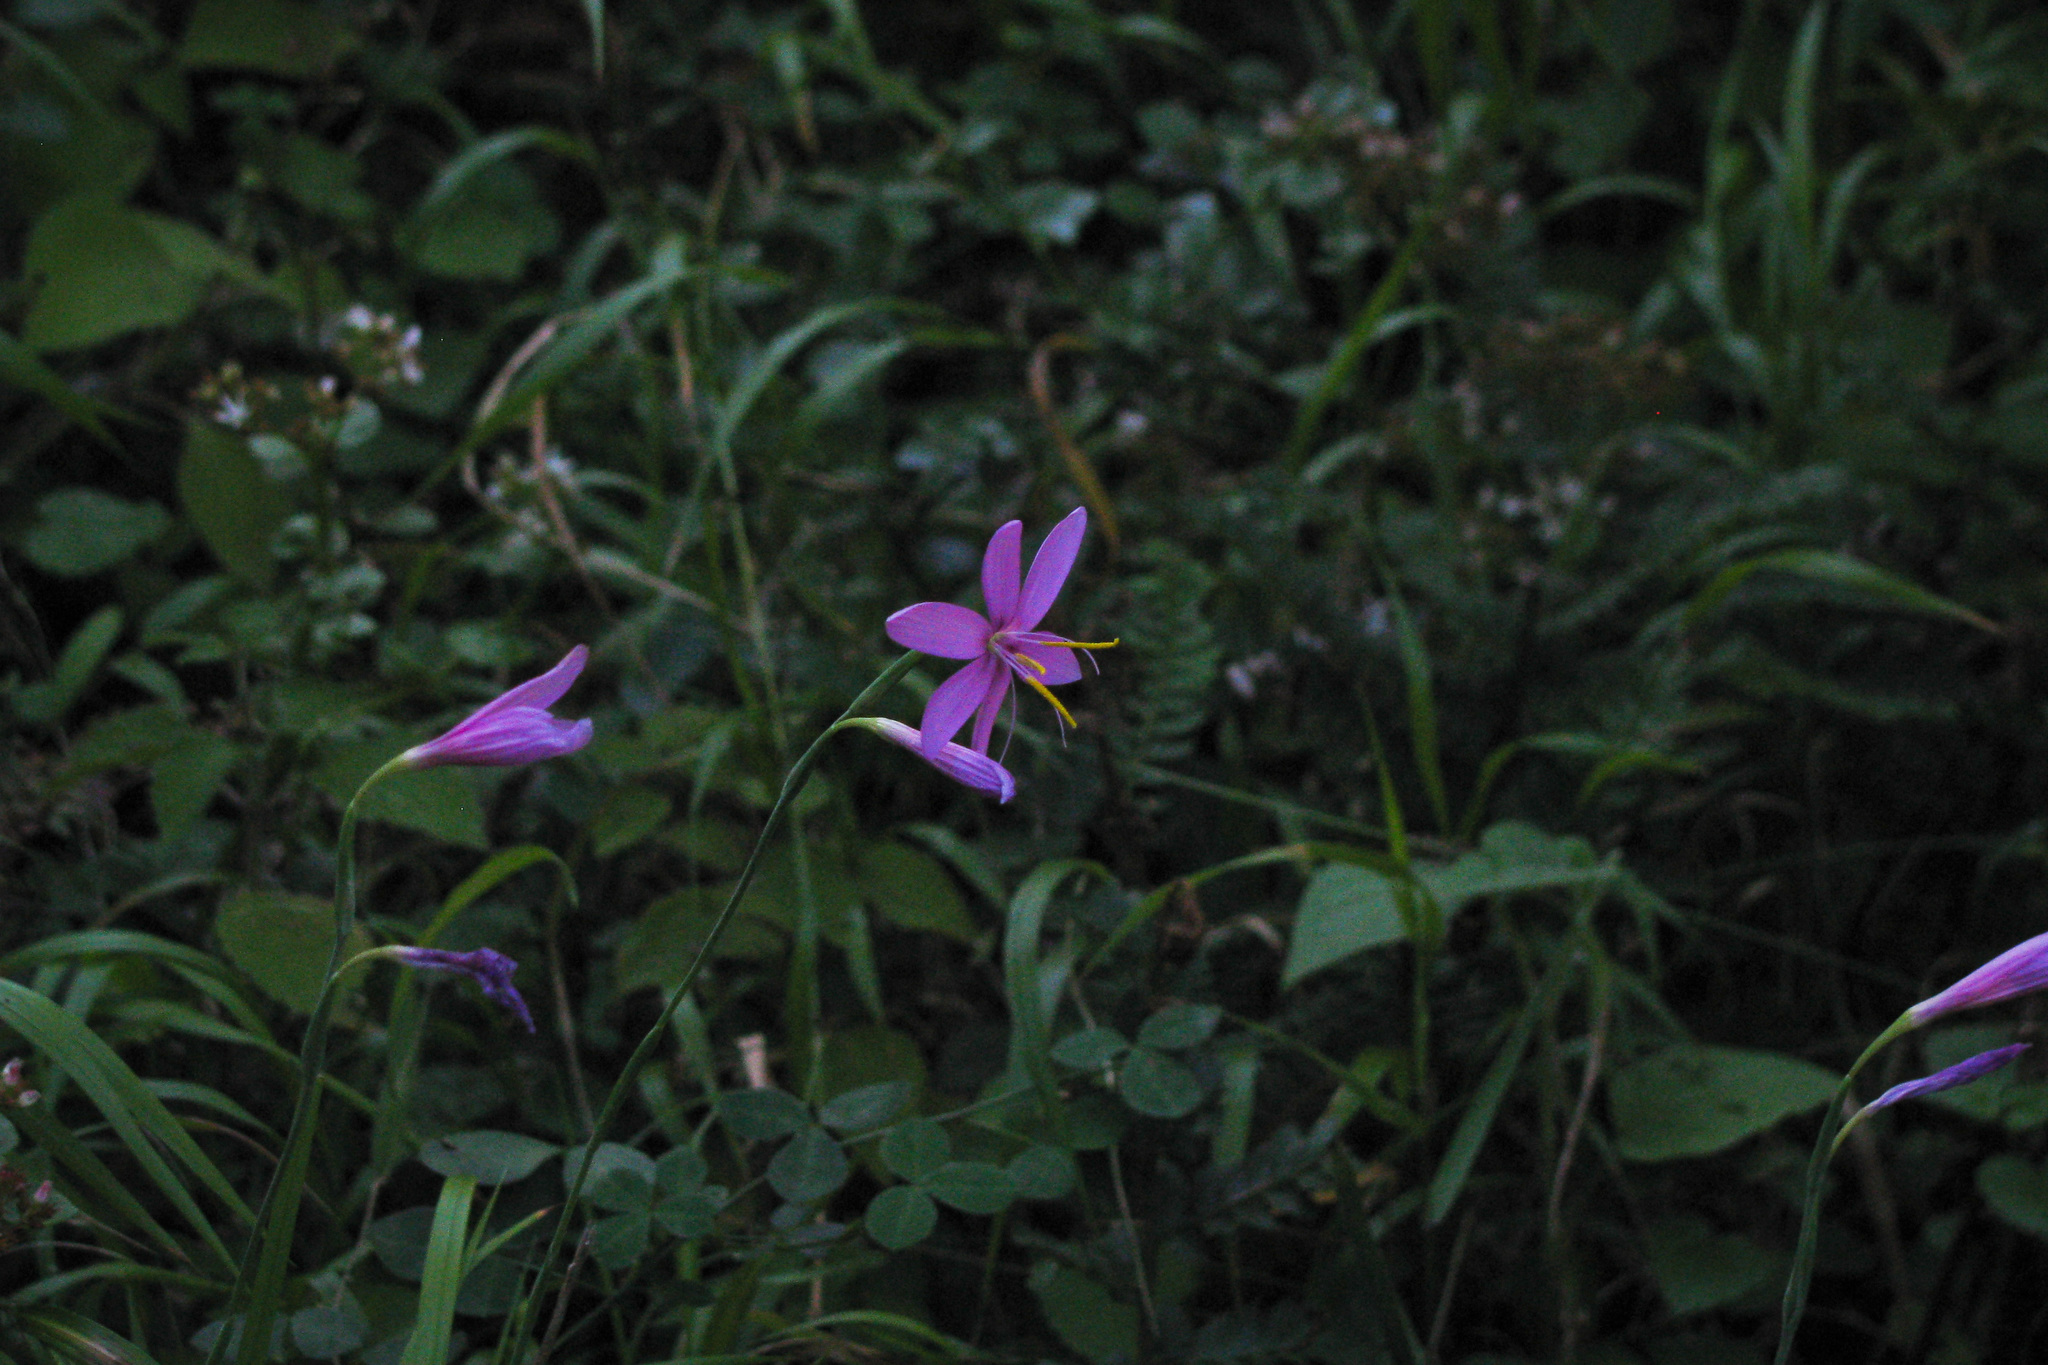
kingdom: Plantae
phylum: Tracheophyta
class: Liliopsida
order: Asparagales
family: Iridaceae
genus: Hesperantha
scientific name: Hesperantha baurii
